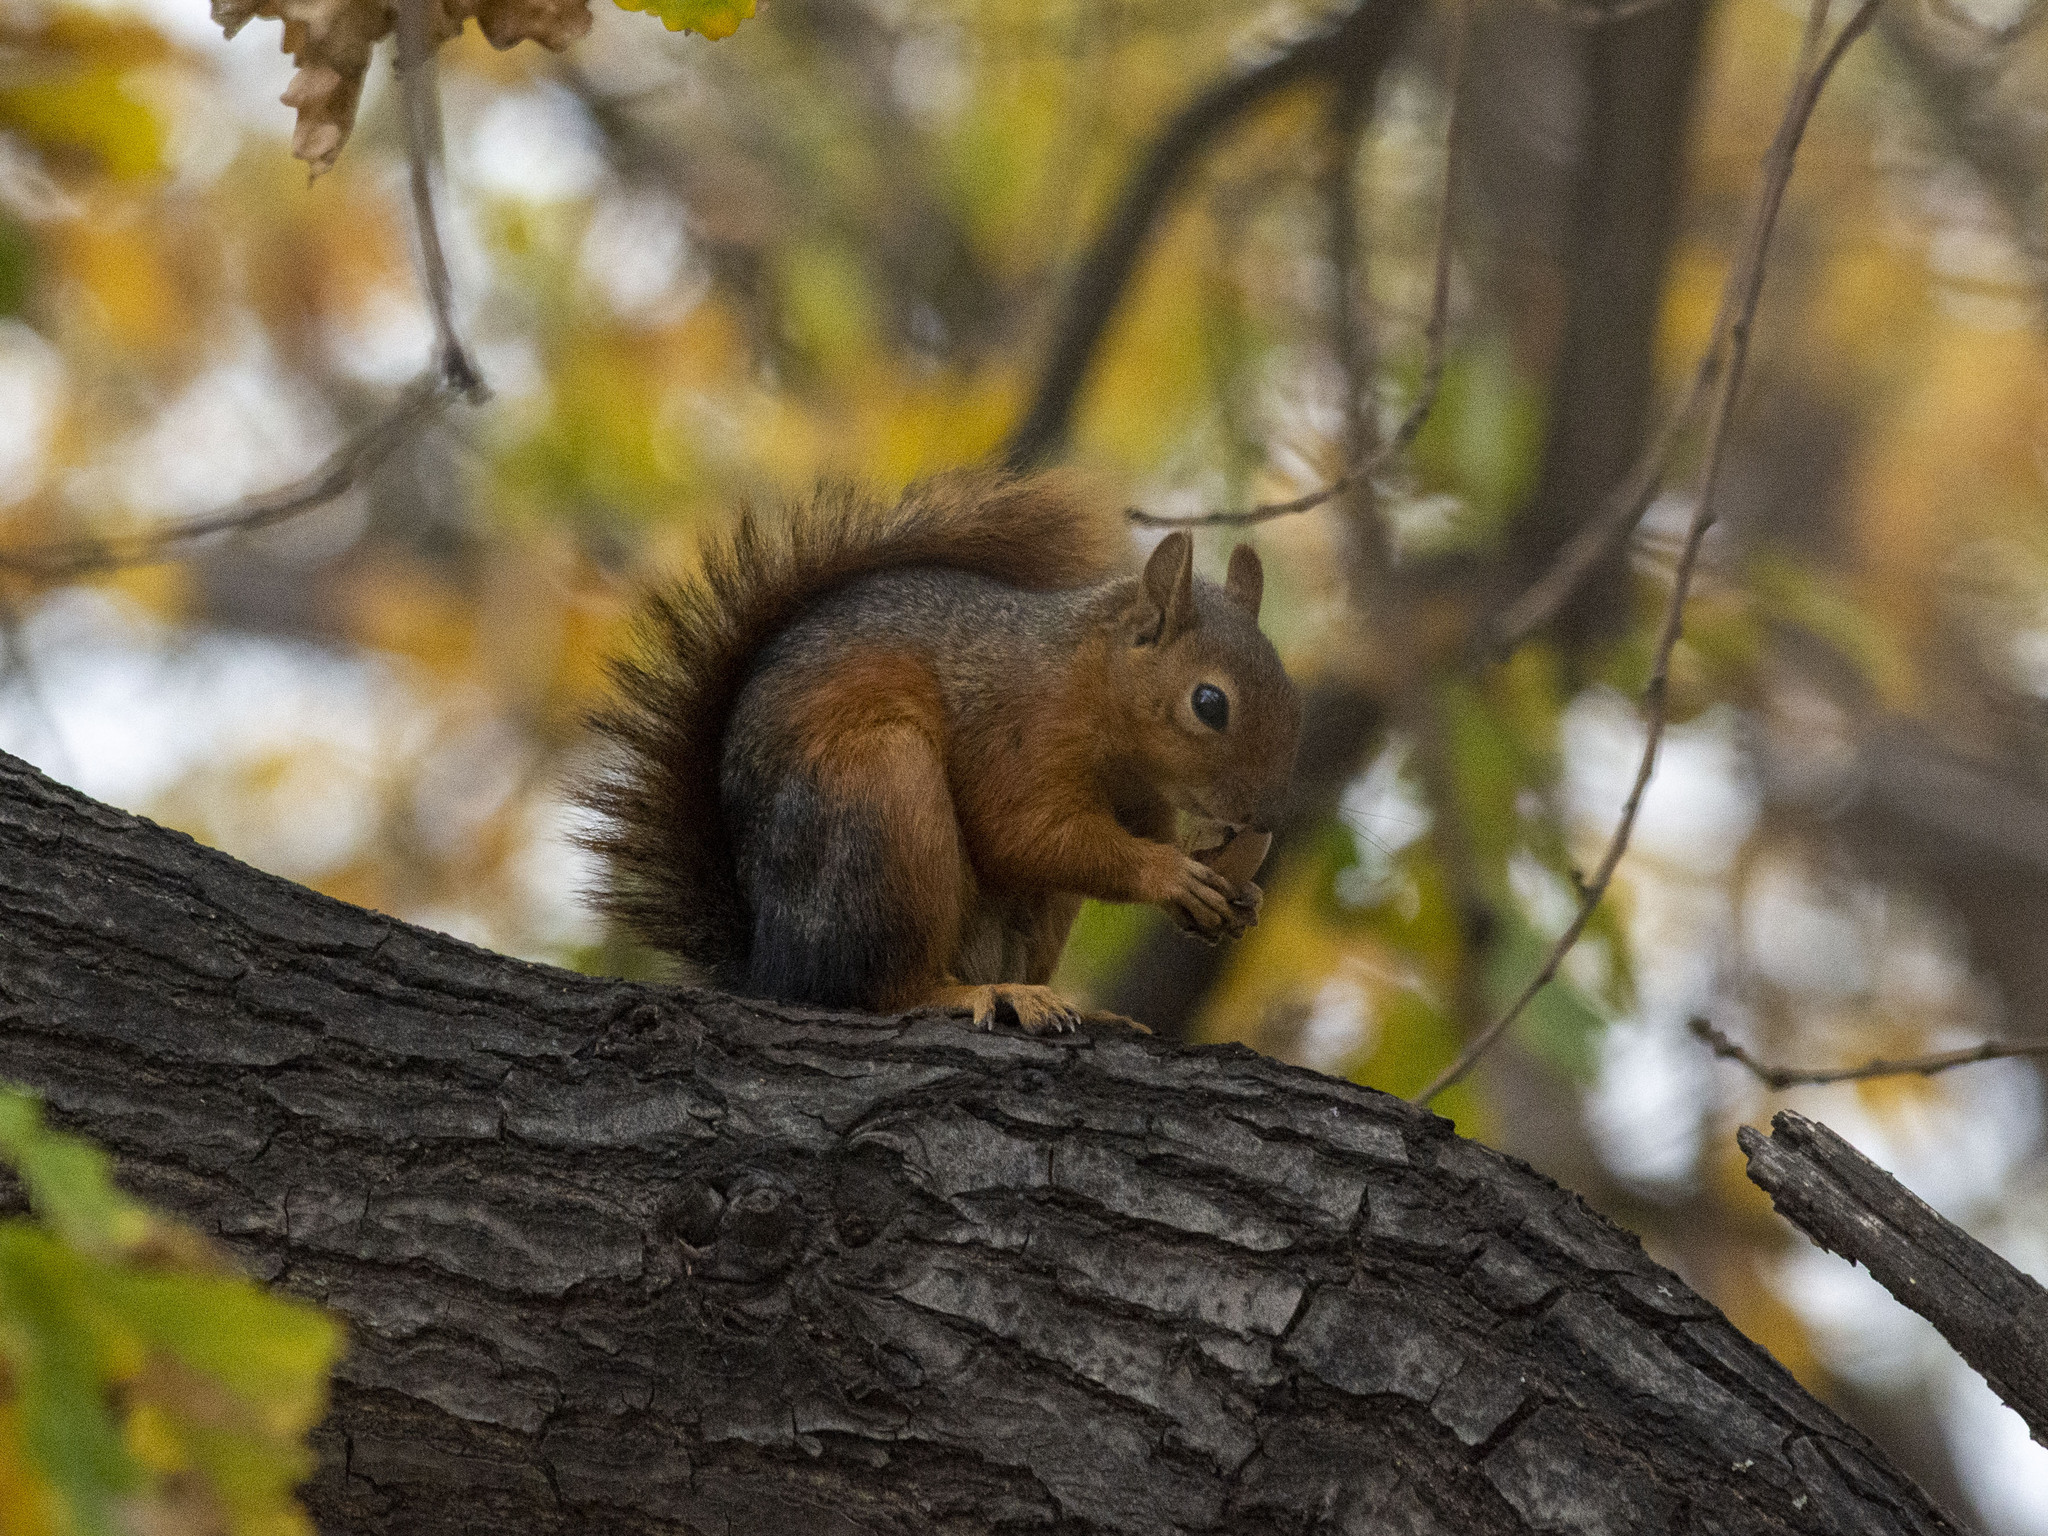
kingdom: Animalia
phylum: Chordata
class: Mammalia
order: Rodentia
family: Sciuridae
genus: Sciurus
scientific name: Sciurus anomalus
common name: Caucasian squirrel
